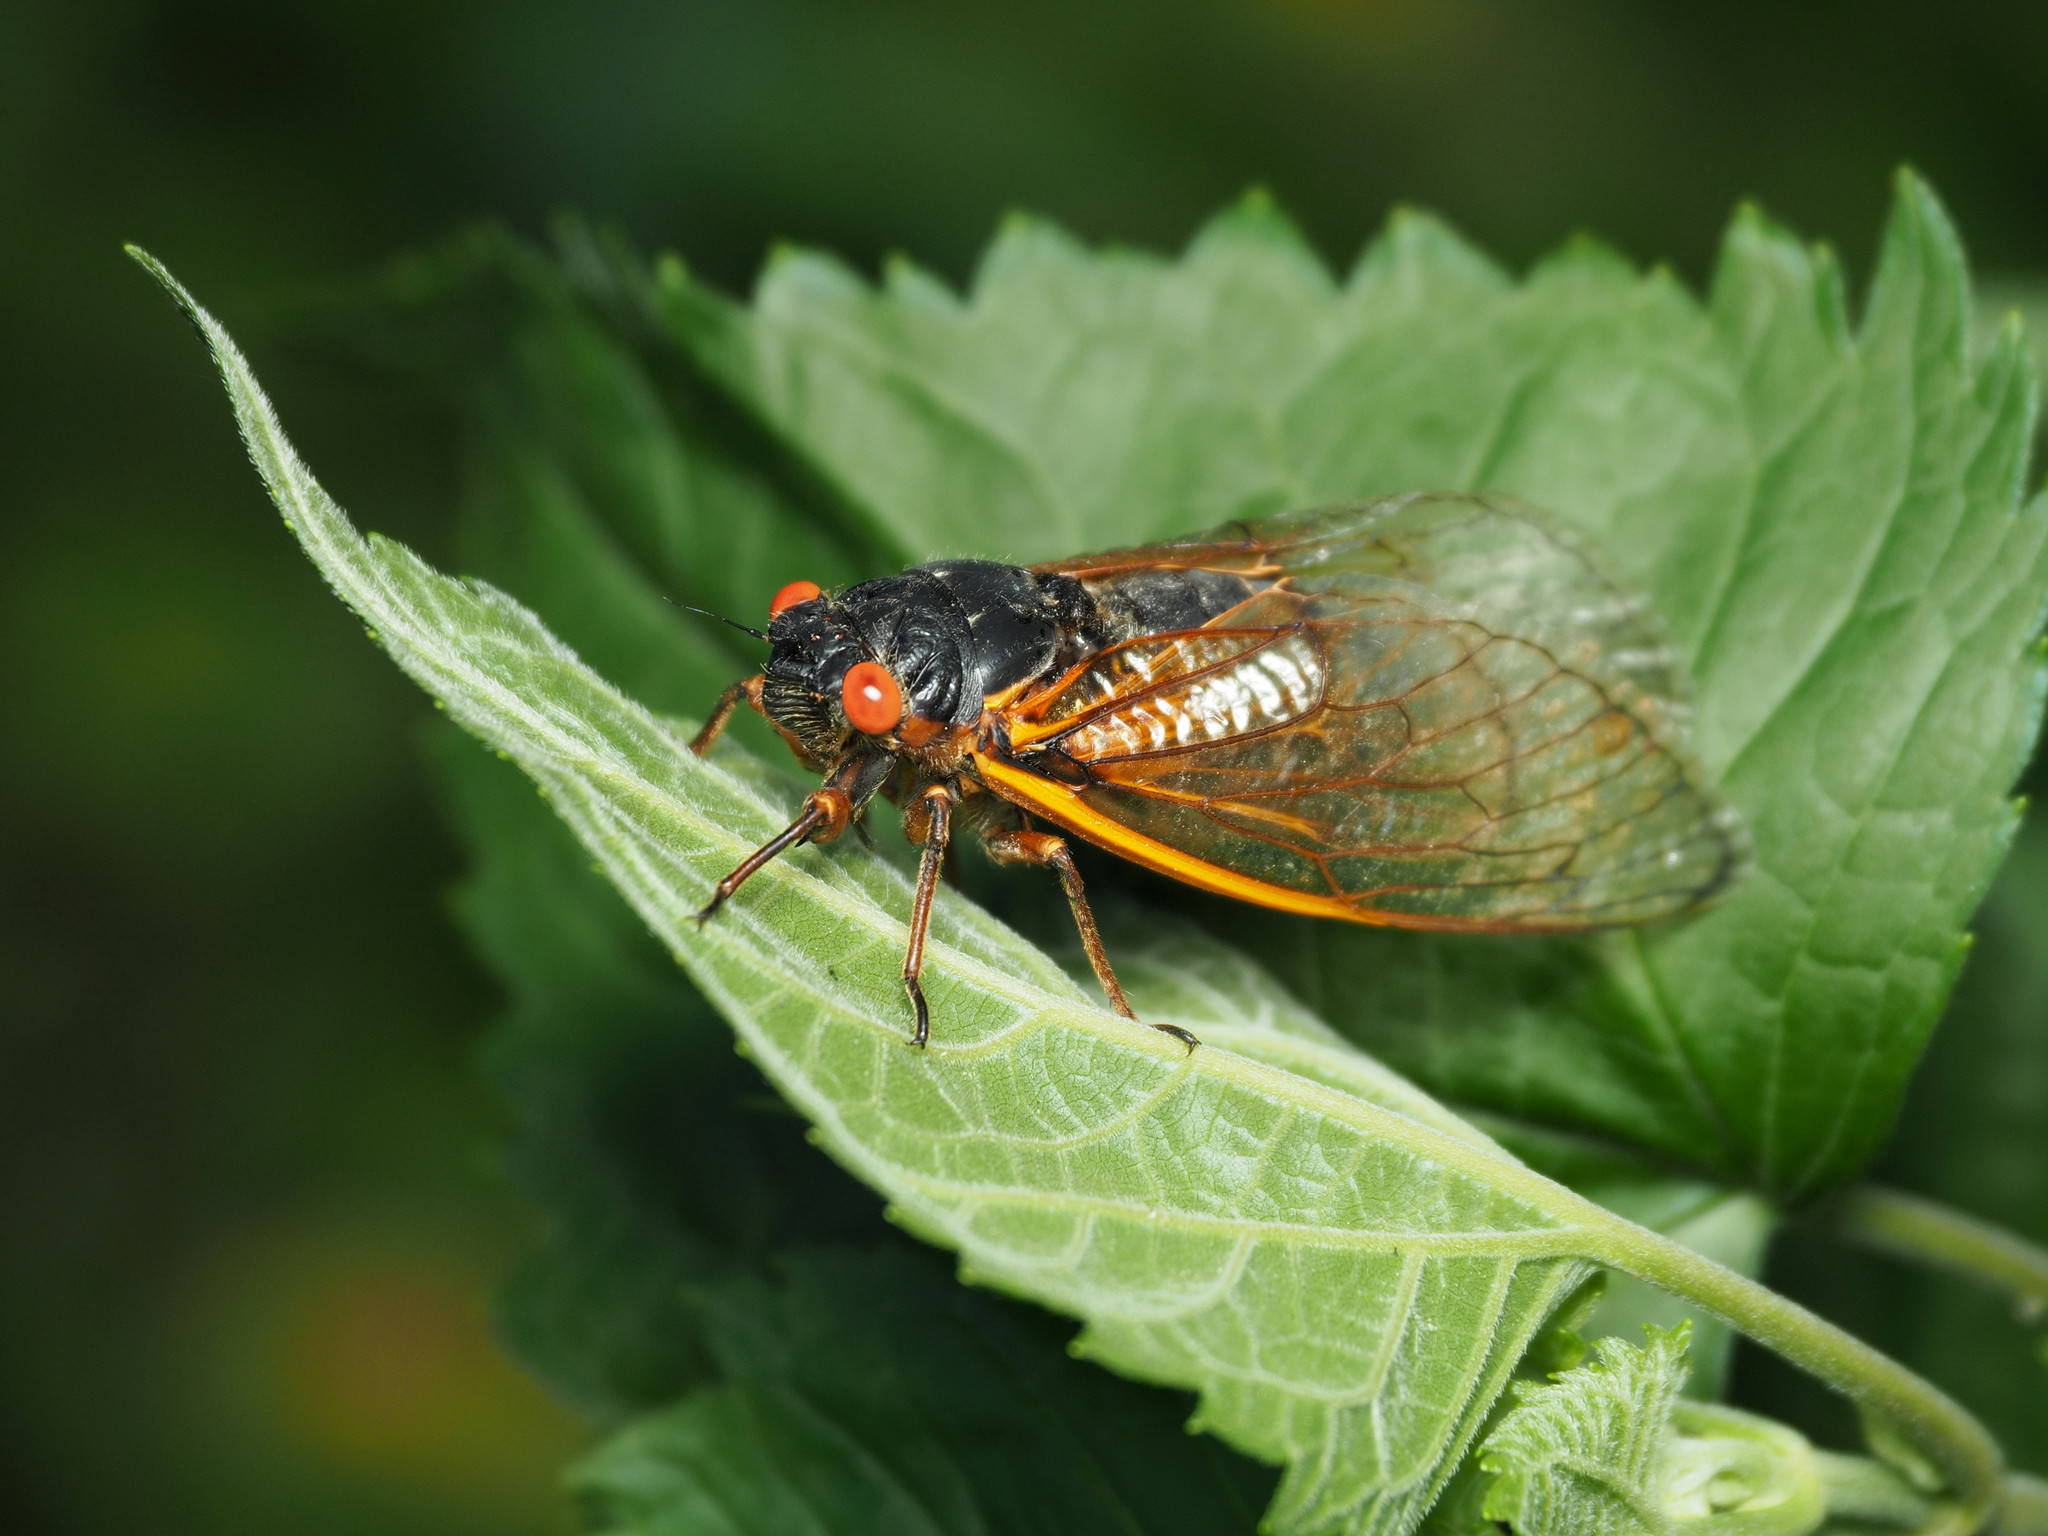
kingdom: Animalia
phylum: Arthropoda
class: Insecta
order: Hemiptera
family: Cicadidae
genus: Magicicada
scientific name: Magicicada septendecim
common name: Periodical cicada
